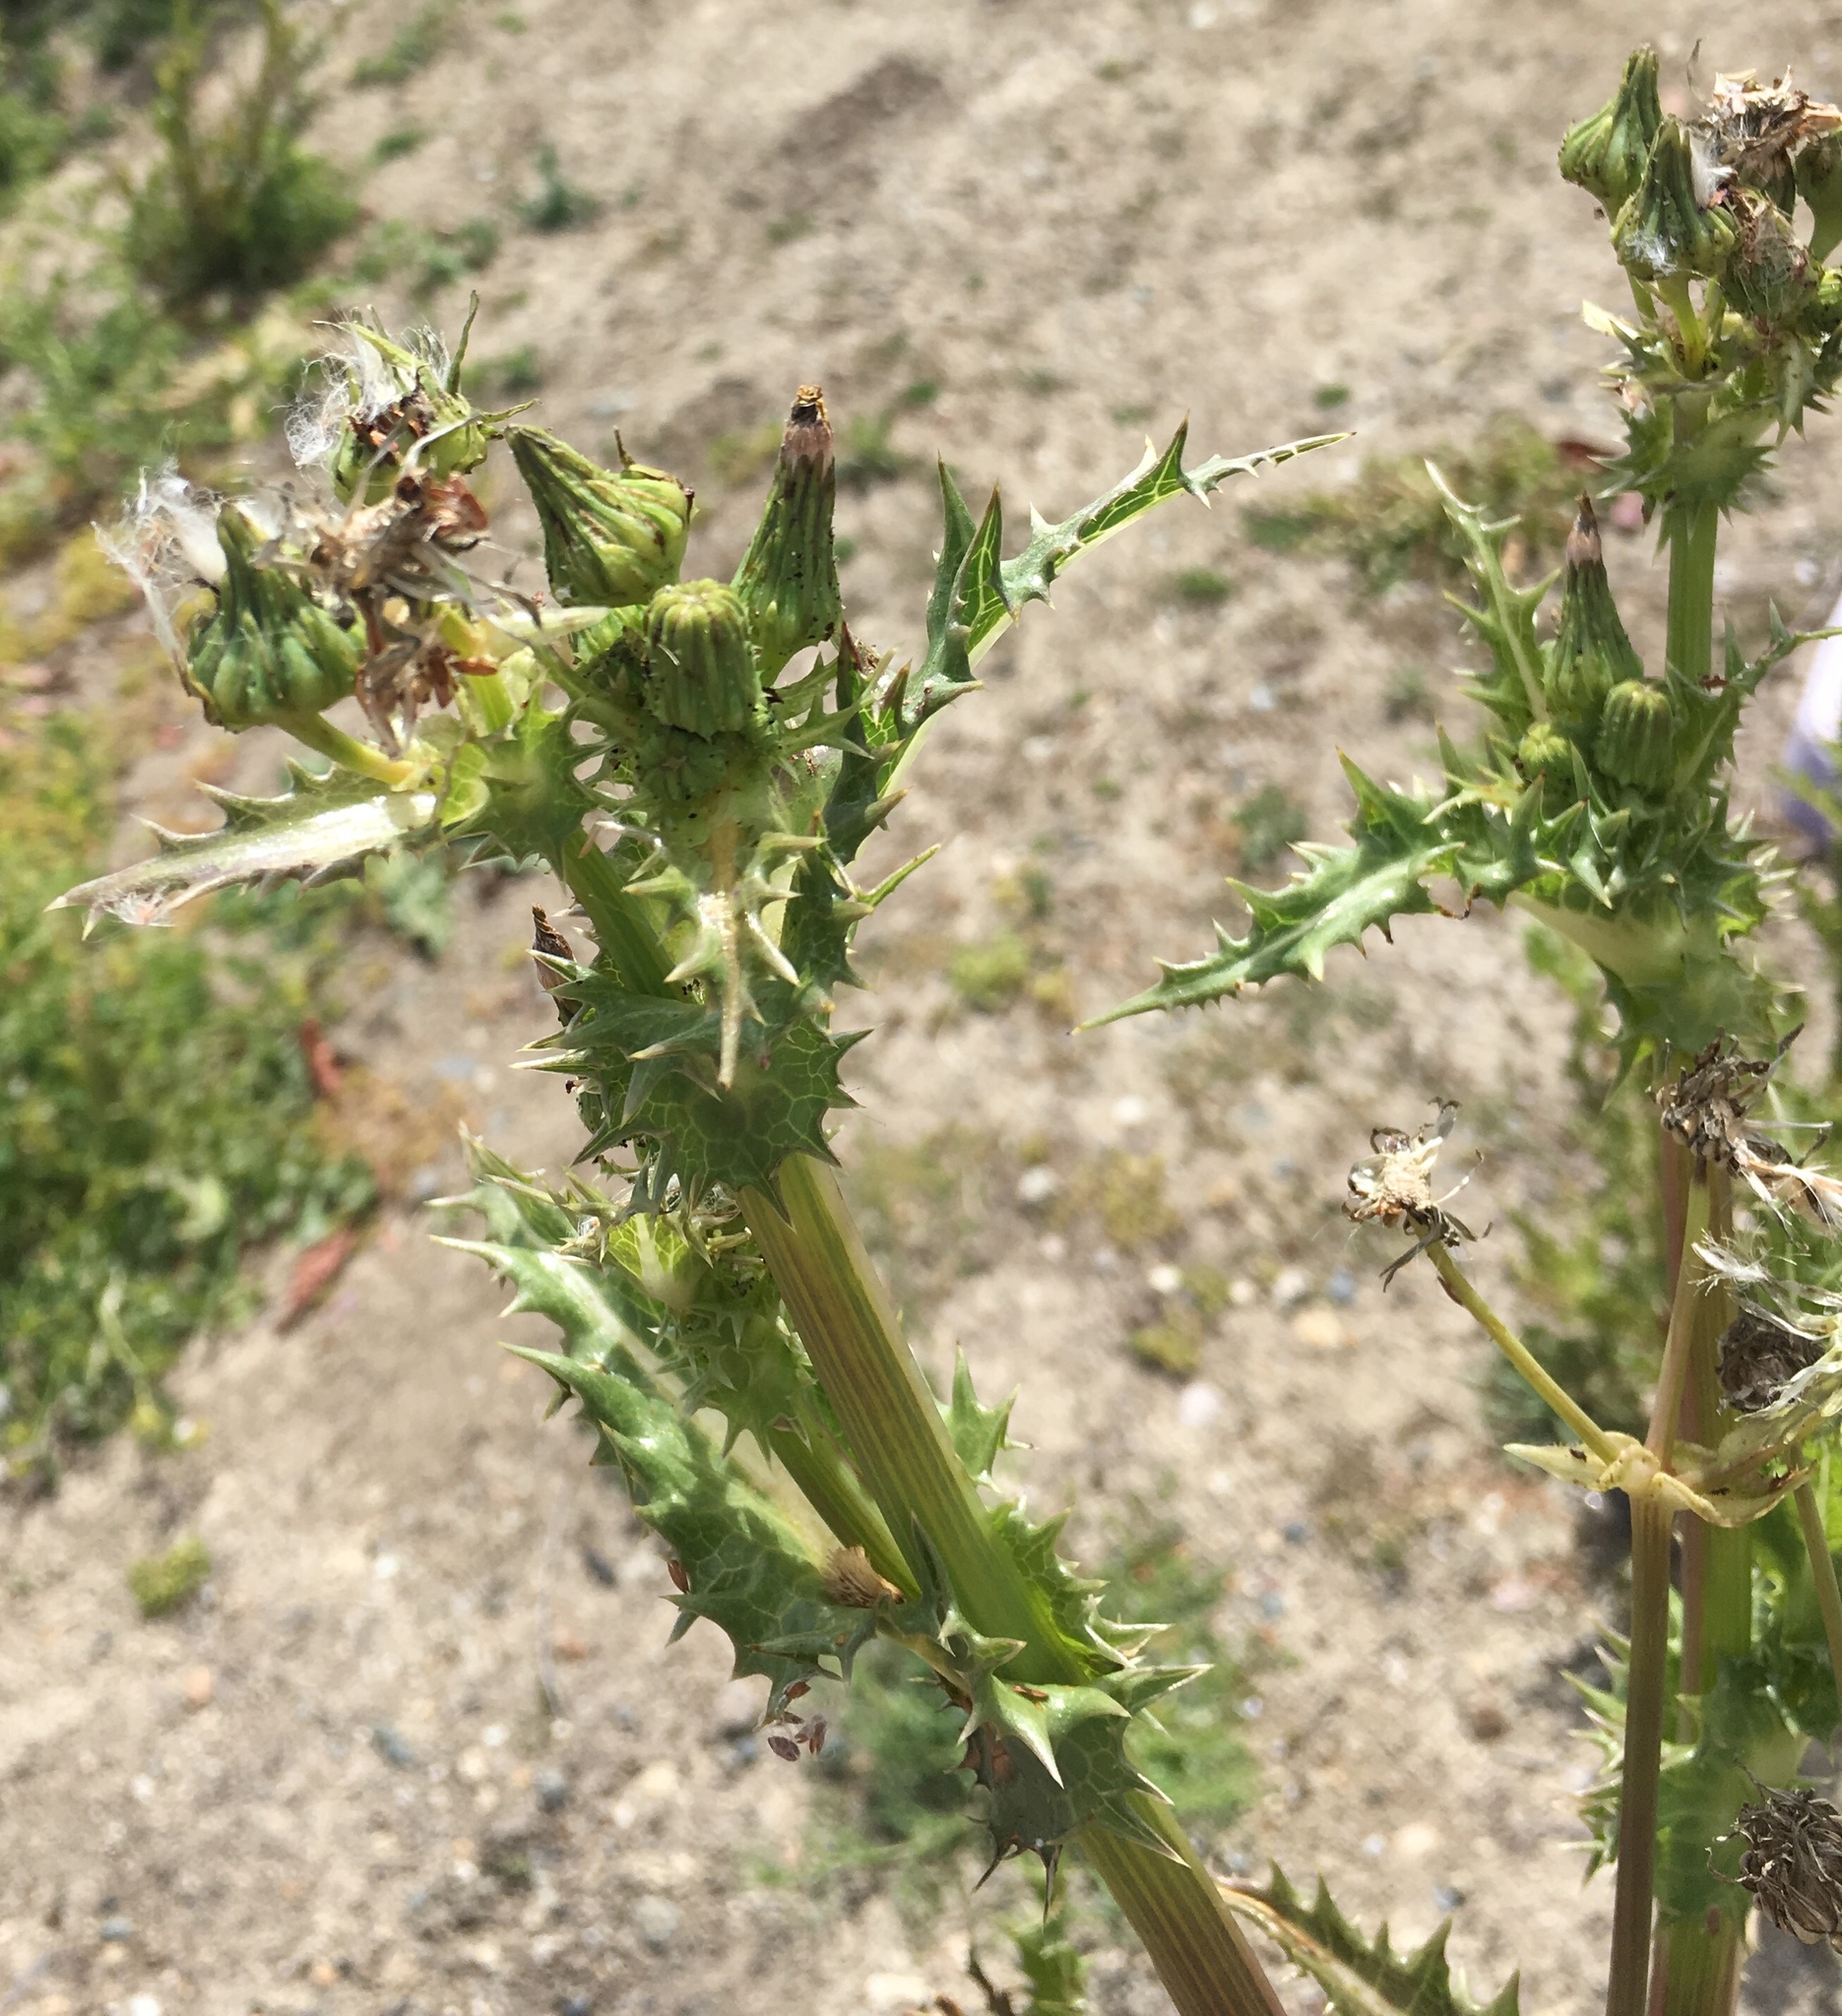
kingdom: Plantae
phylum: Tracheophyta
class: Magnoliopsida
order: Asterales
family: Asteraceae
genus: Sonchus
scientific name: Sonchus asper
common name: Prickly sow-thistle
